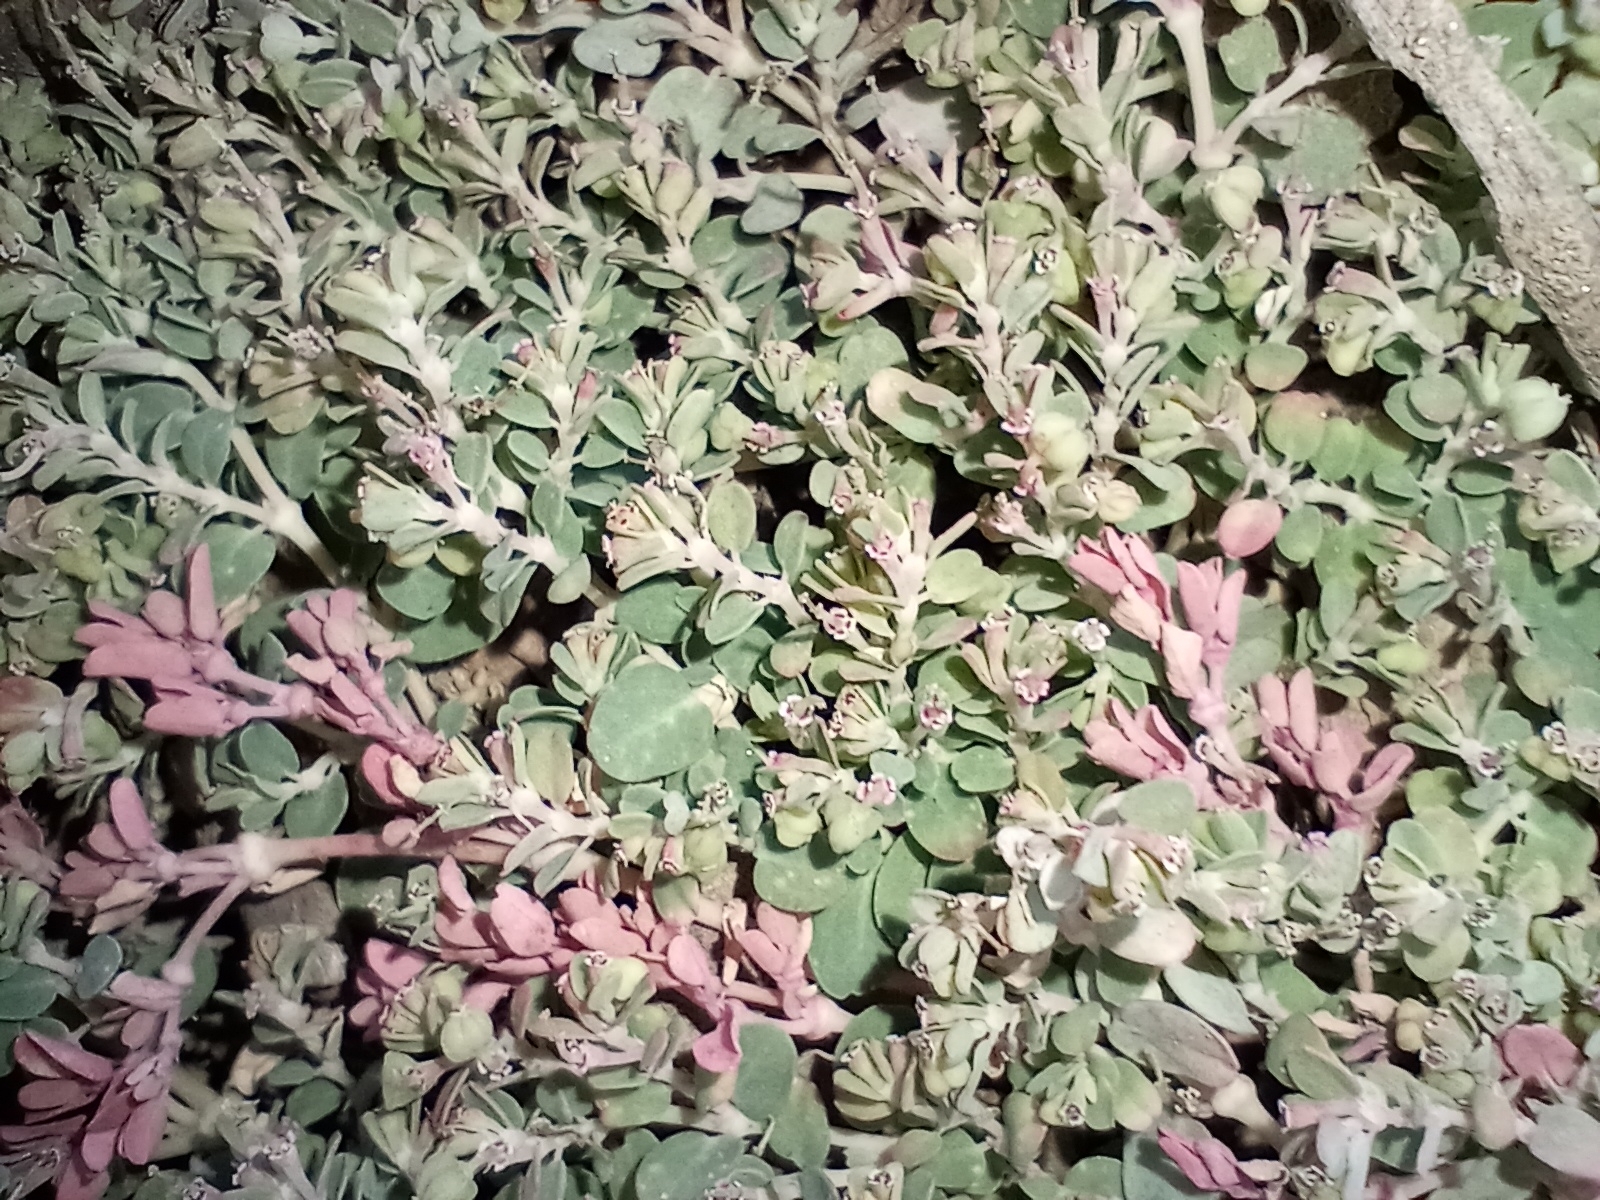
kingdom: Plantae
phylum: Tracheophyta
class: Magnoliopsida
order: Malpighiales
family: Euphorbiaceae
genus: Euphorbia
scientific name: Euphorbia serpens
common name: Matted sandmat
